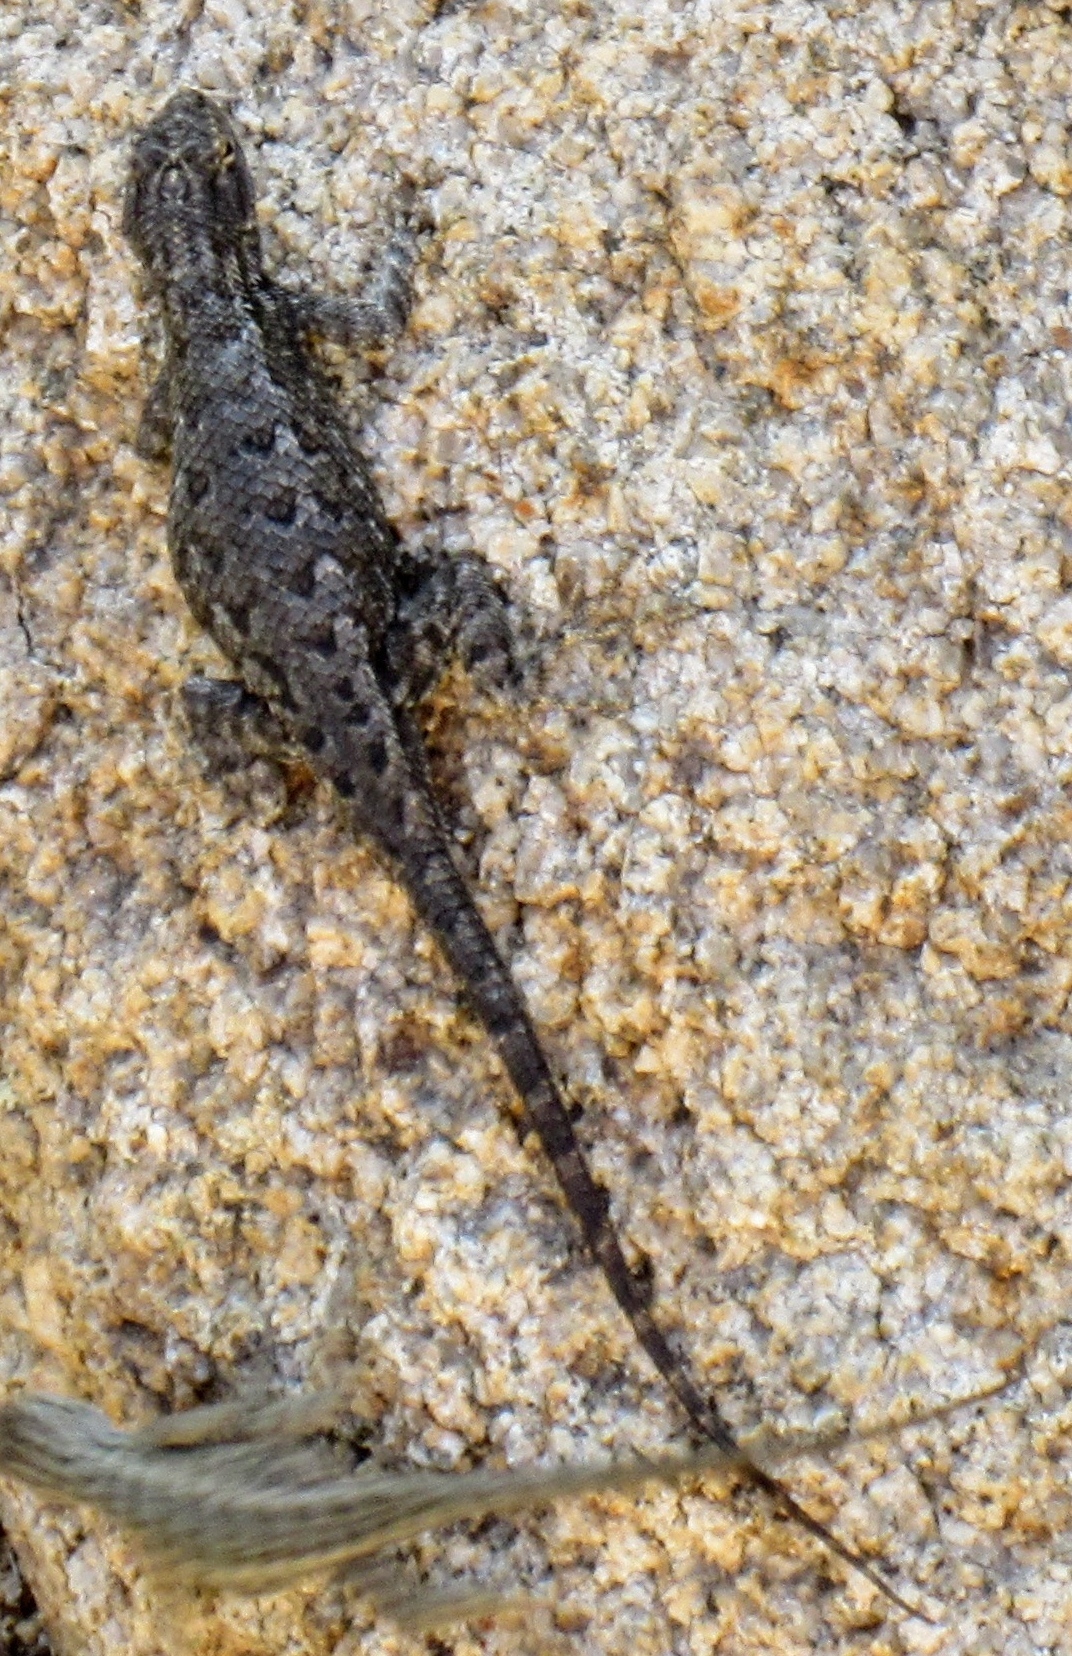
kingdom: Animalia
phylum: Chordata
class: Squamata
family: Phrynosomatidae
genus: Sceloporus
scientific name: Sceloporus occidentalis
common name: Western fence lizard
